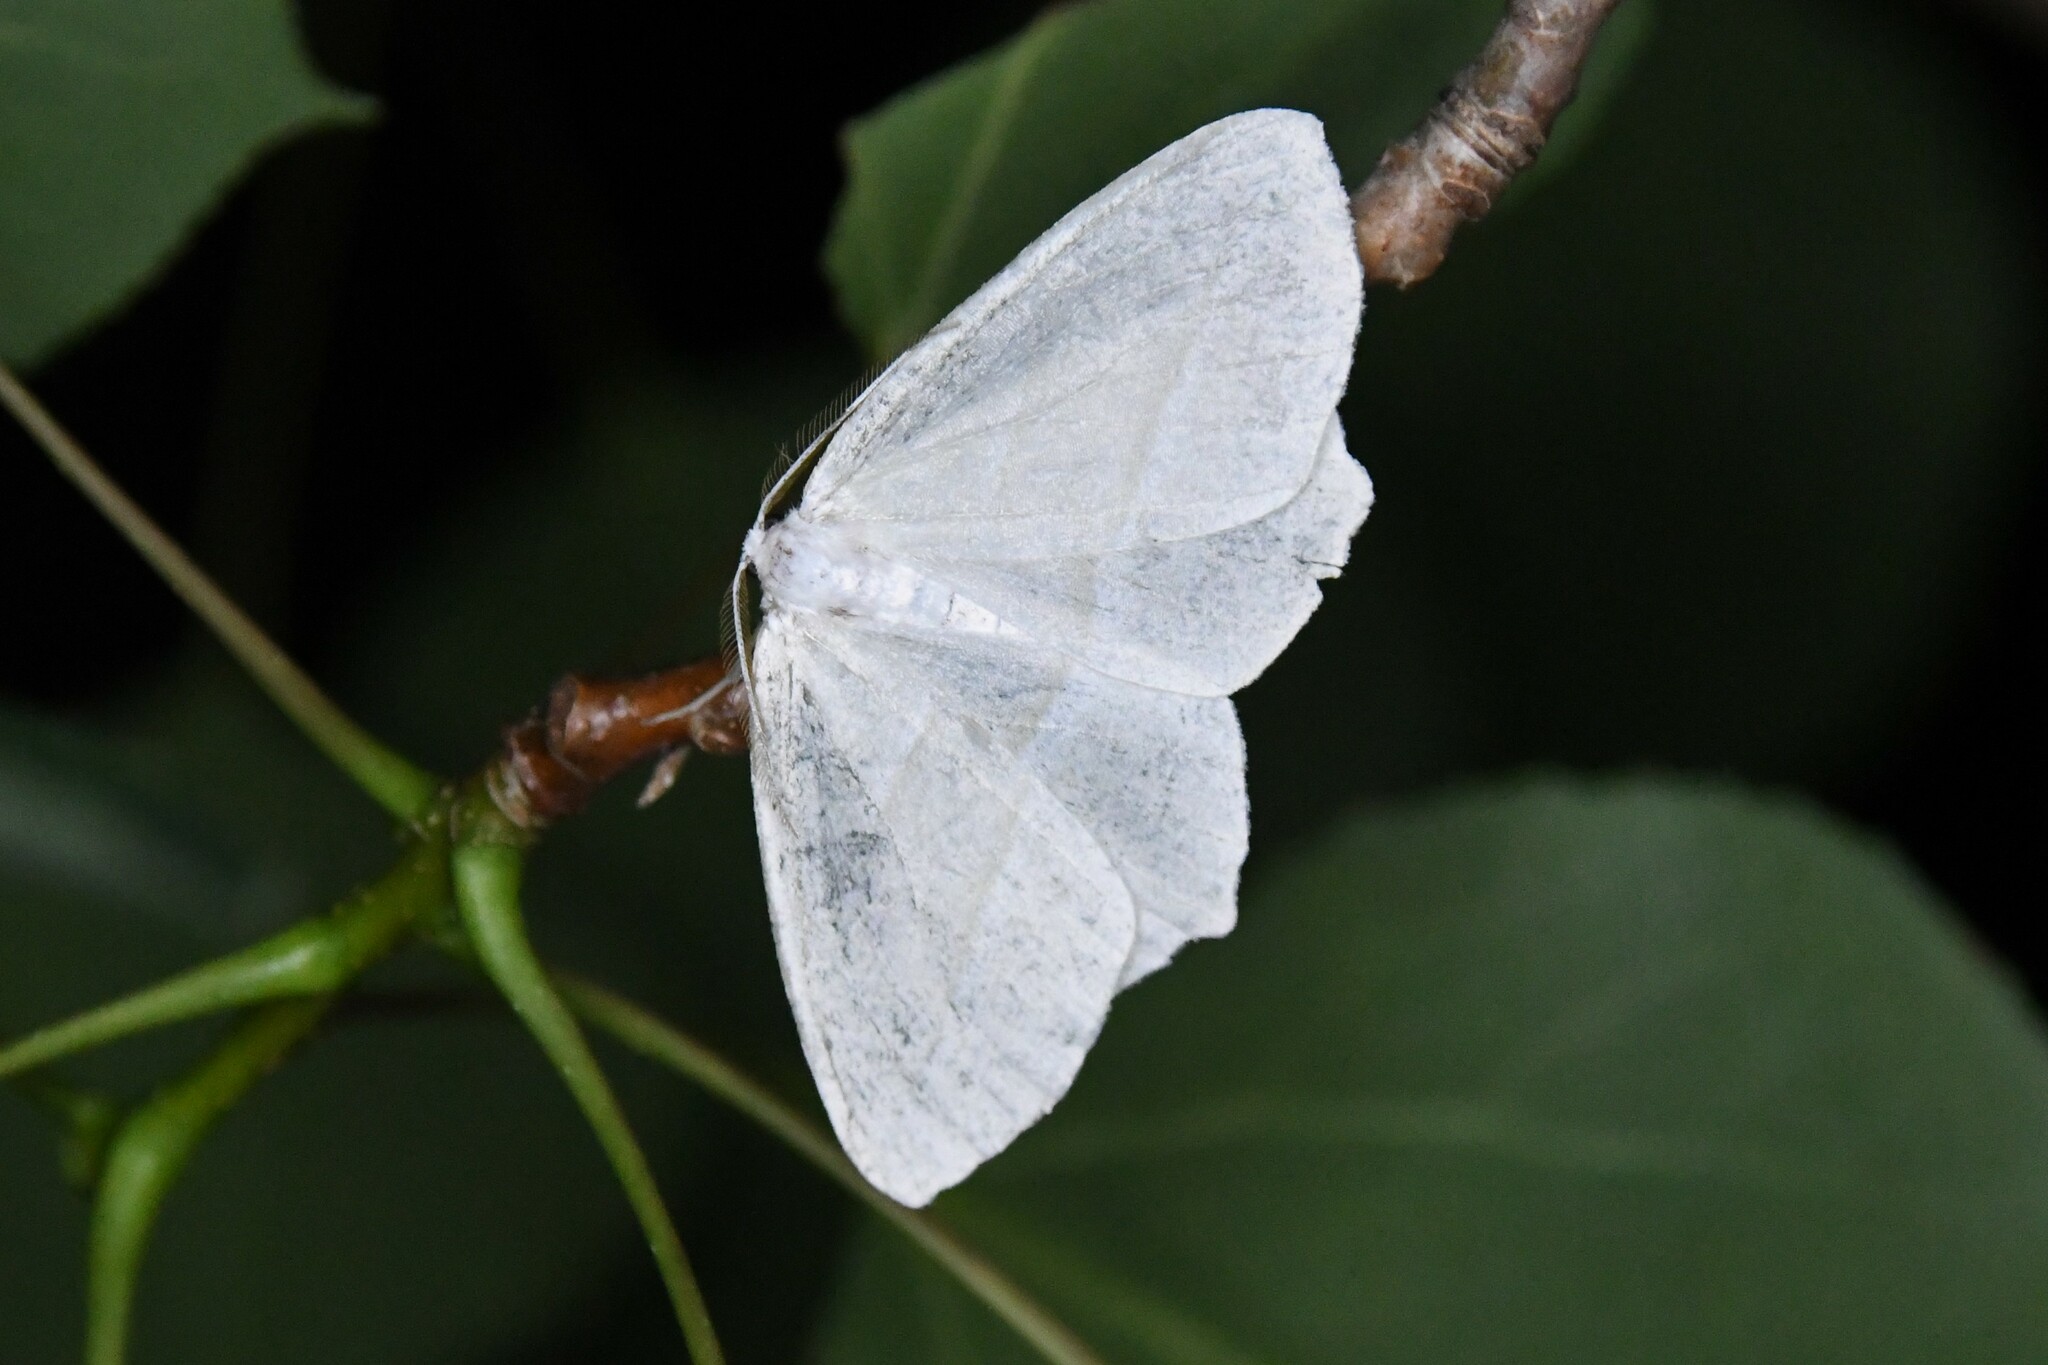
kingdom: Animalia
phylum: Arthropoda
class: Insecta
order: Lepidoptera
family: Geometridae
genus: Campaea
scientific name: Campaea perlata
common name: Fringed looper
